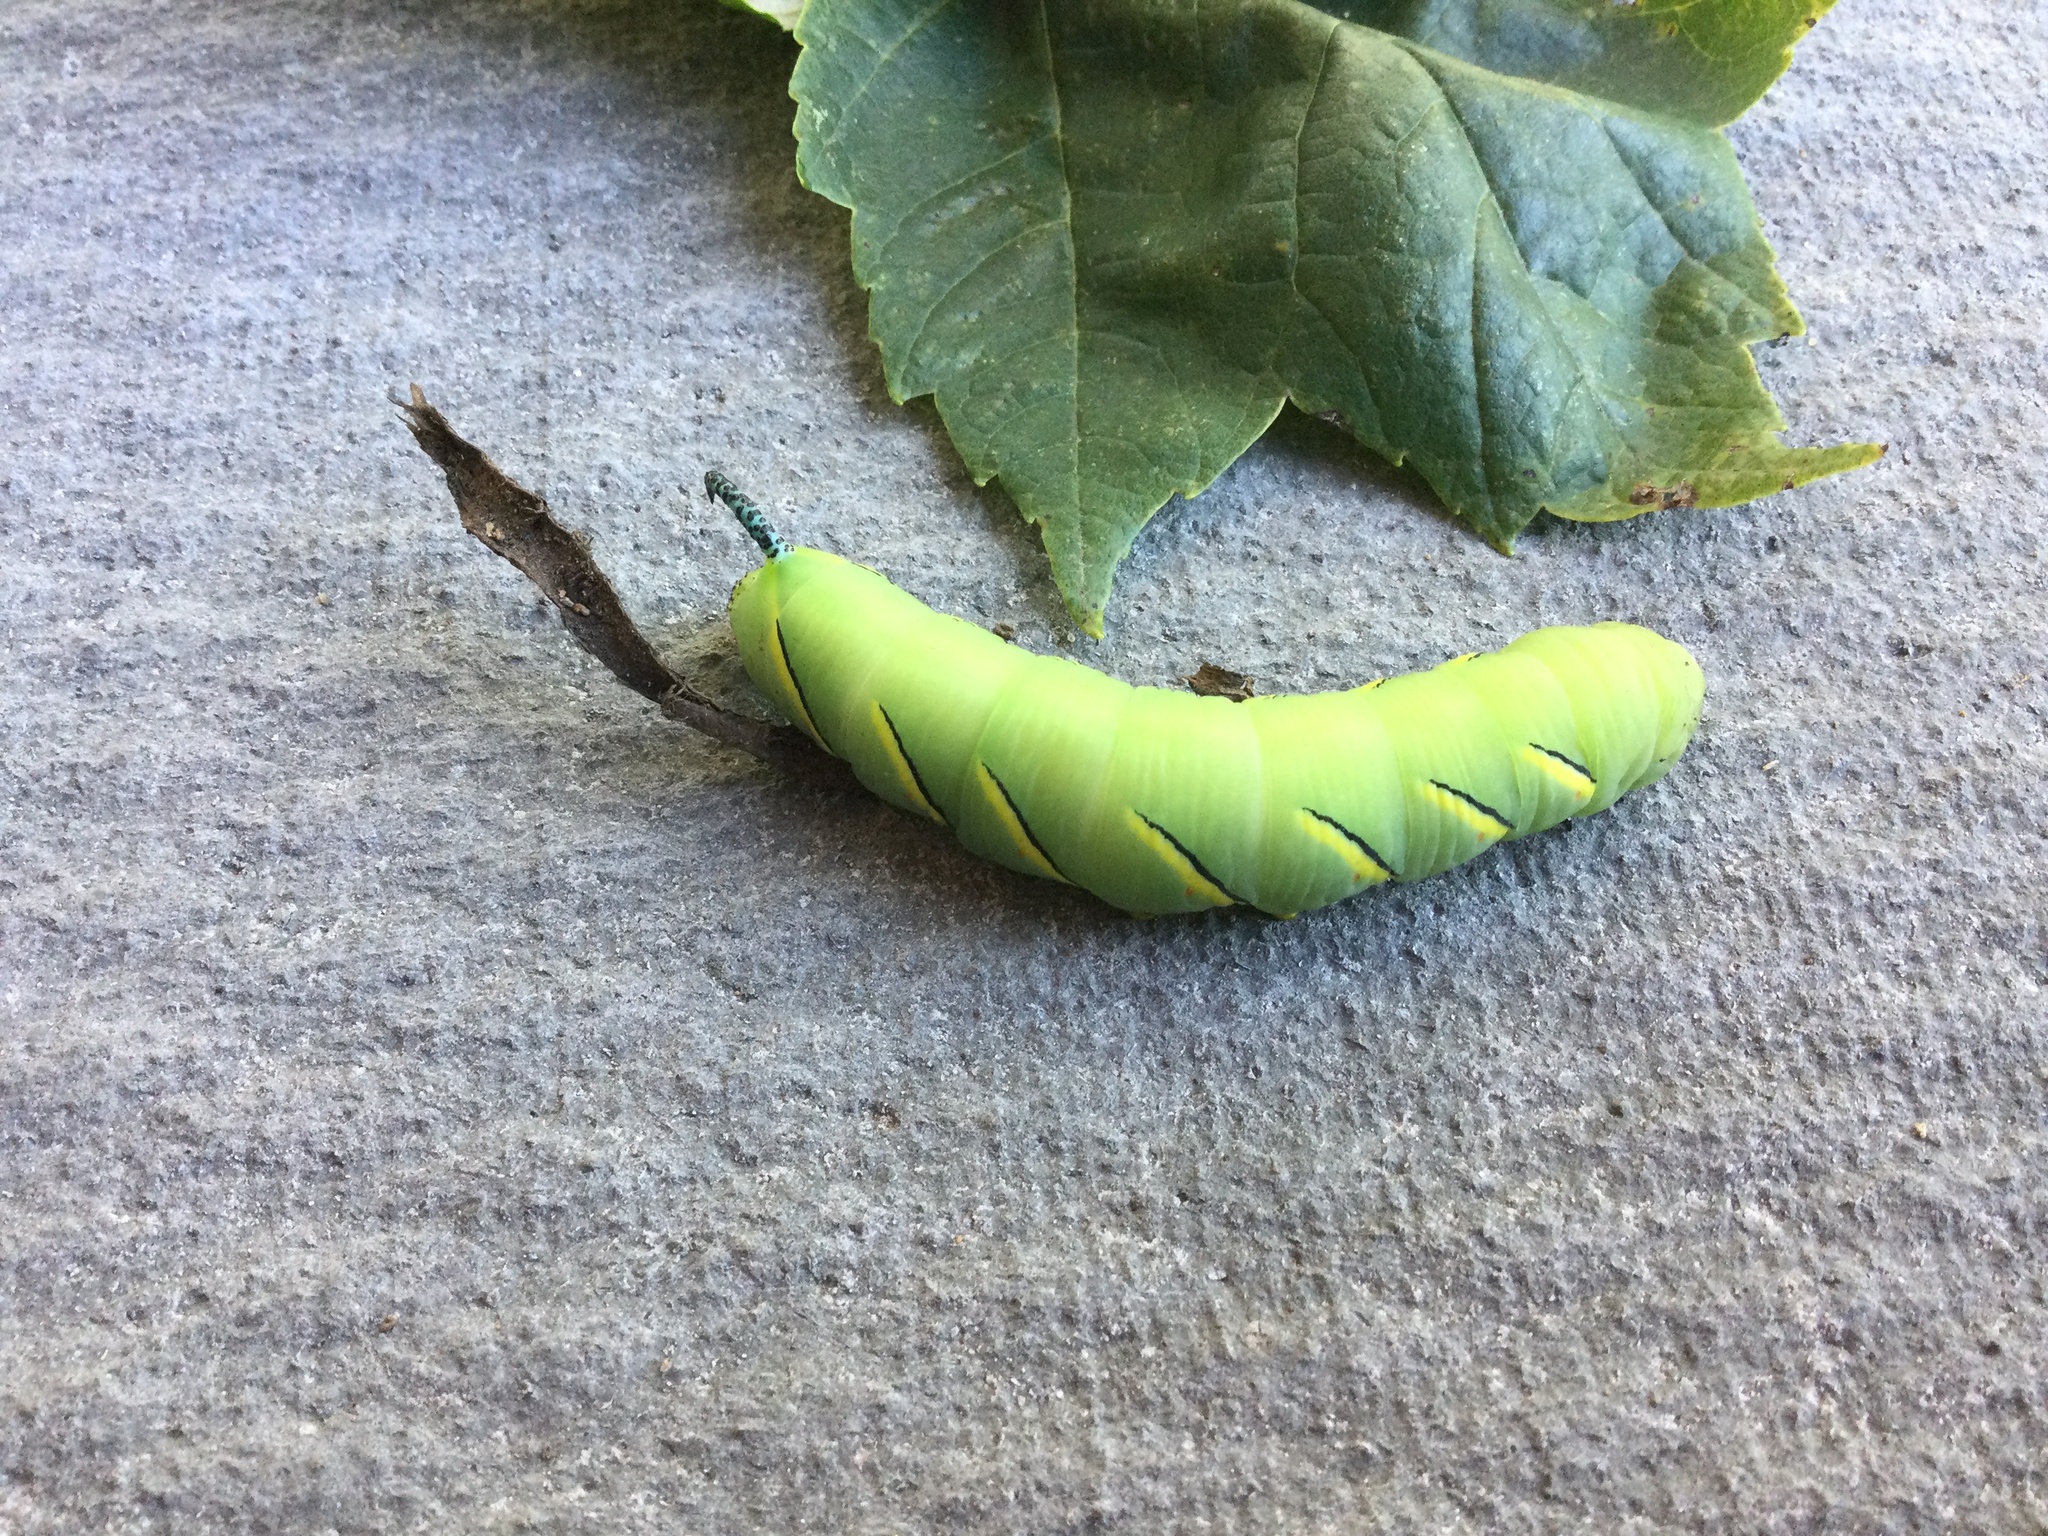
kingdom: Animalia
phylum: Arthropoda
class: Insecta
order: Lepidoptera
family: Sphingidae
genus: Sphinx
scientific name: Sphinx kalmiae
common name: Laurel sphinx
